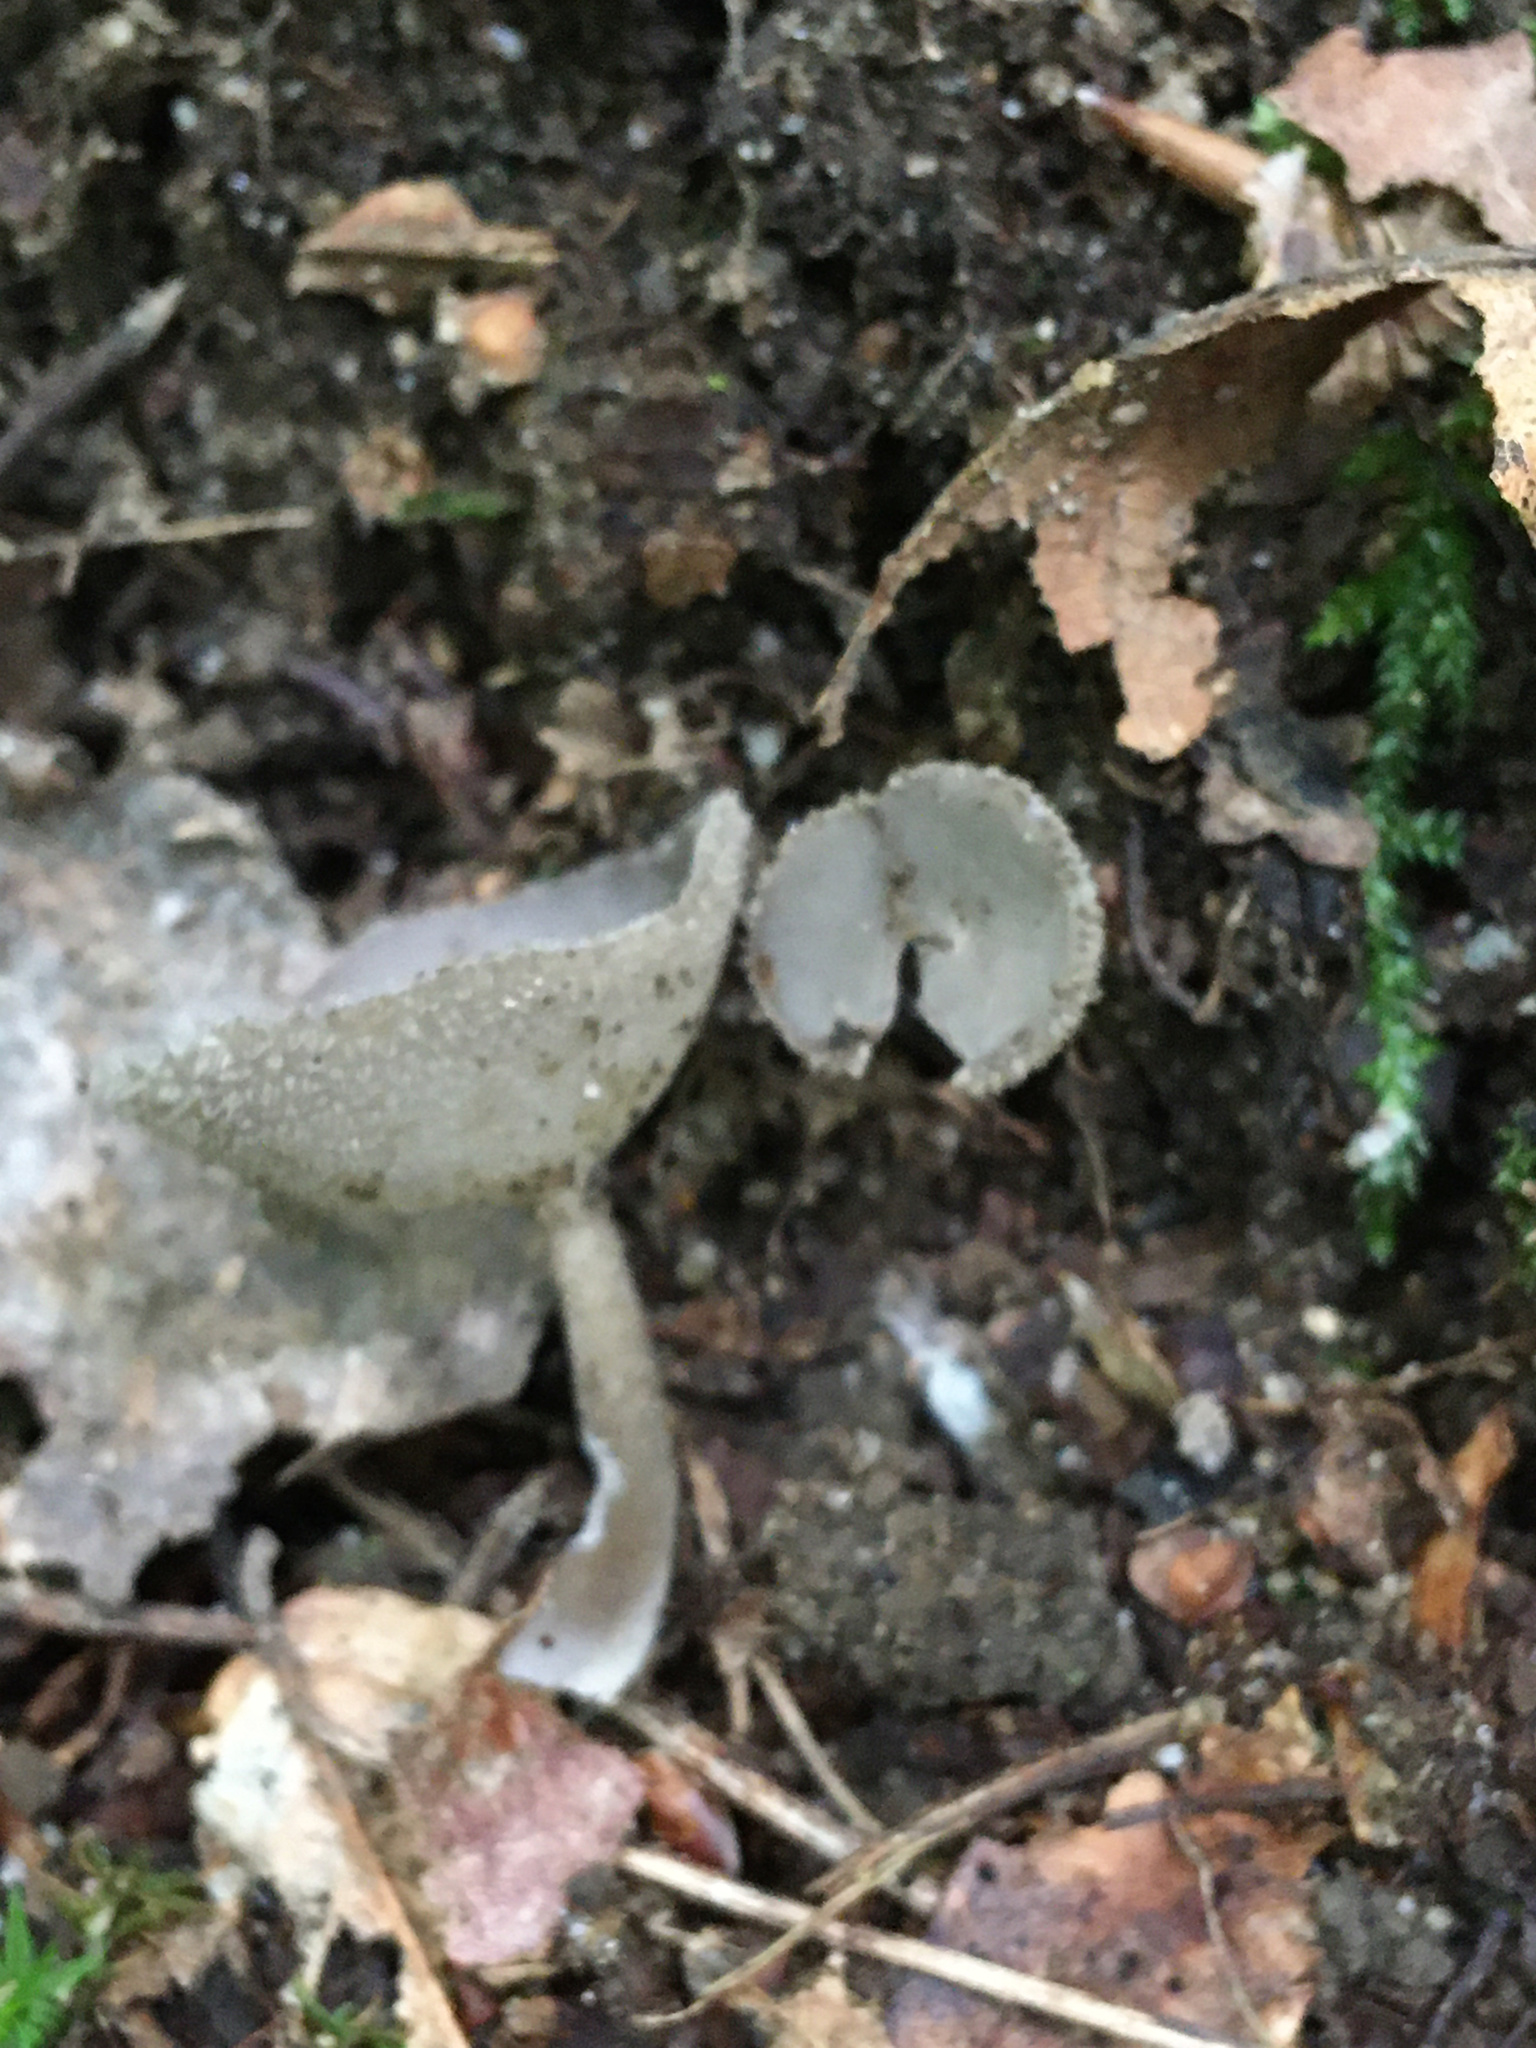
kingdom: Fungi
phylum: Ascomycota
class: Pezizomycetes
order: Pezizales
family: Helvellaceae
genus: Helvella
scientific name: Helvella macropus
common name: Felt saddle
